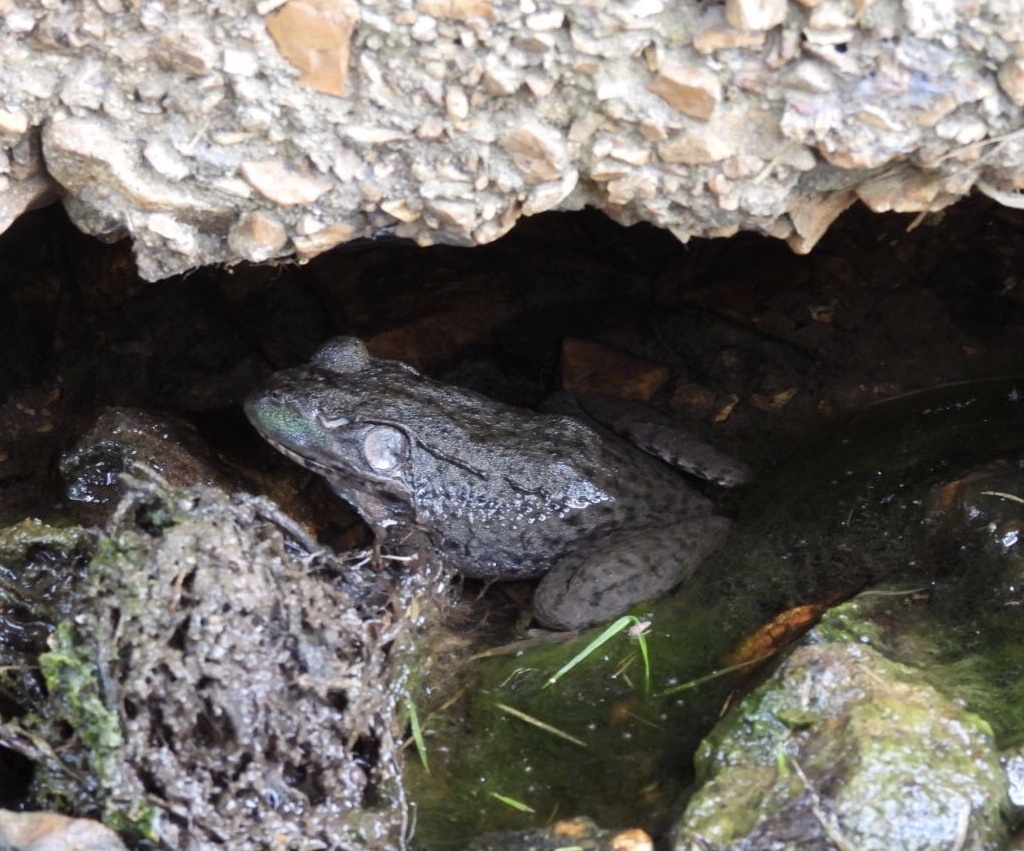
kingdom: Animalia
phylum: Chordata
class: Amphibia
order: Anura
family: Ranidae
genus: Lithobates
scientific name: Lithobates clamitans
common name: Green frog
